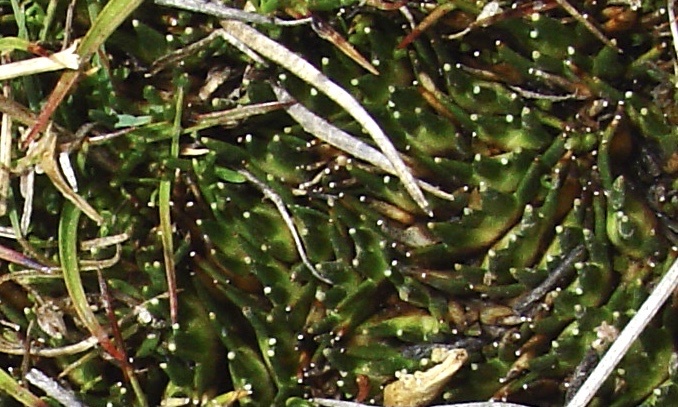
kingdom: Plantae
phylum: Tracheophyta
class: Liliopsida
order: Poales
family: Juncaceae
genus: Distichia
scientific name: Distichia muscoides
